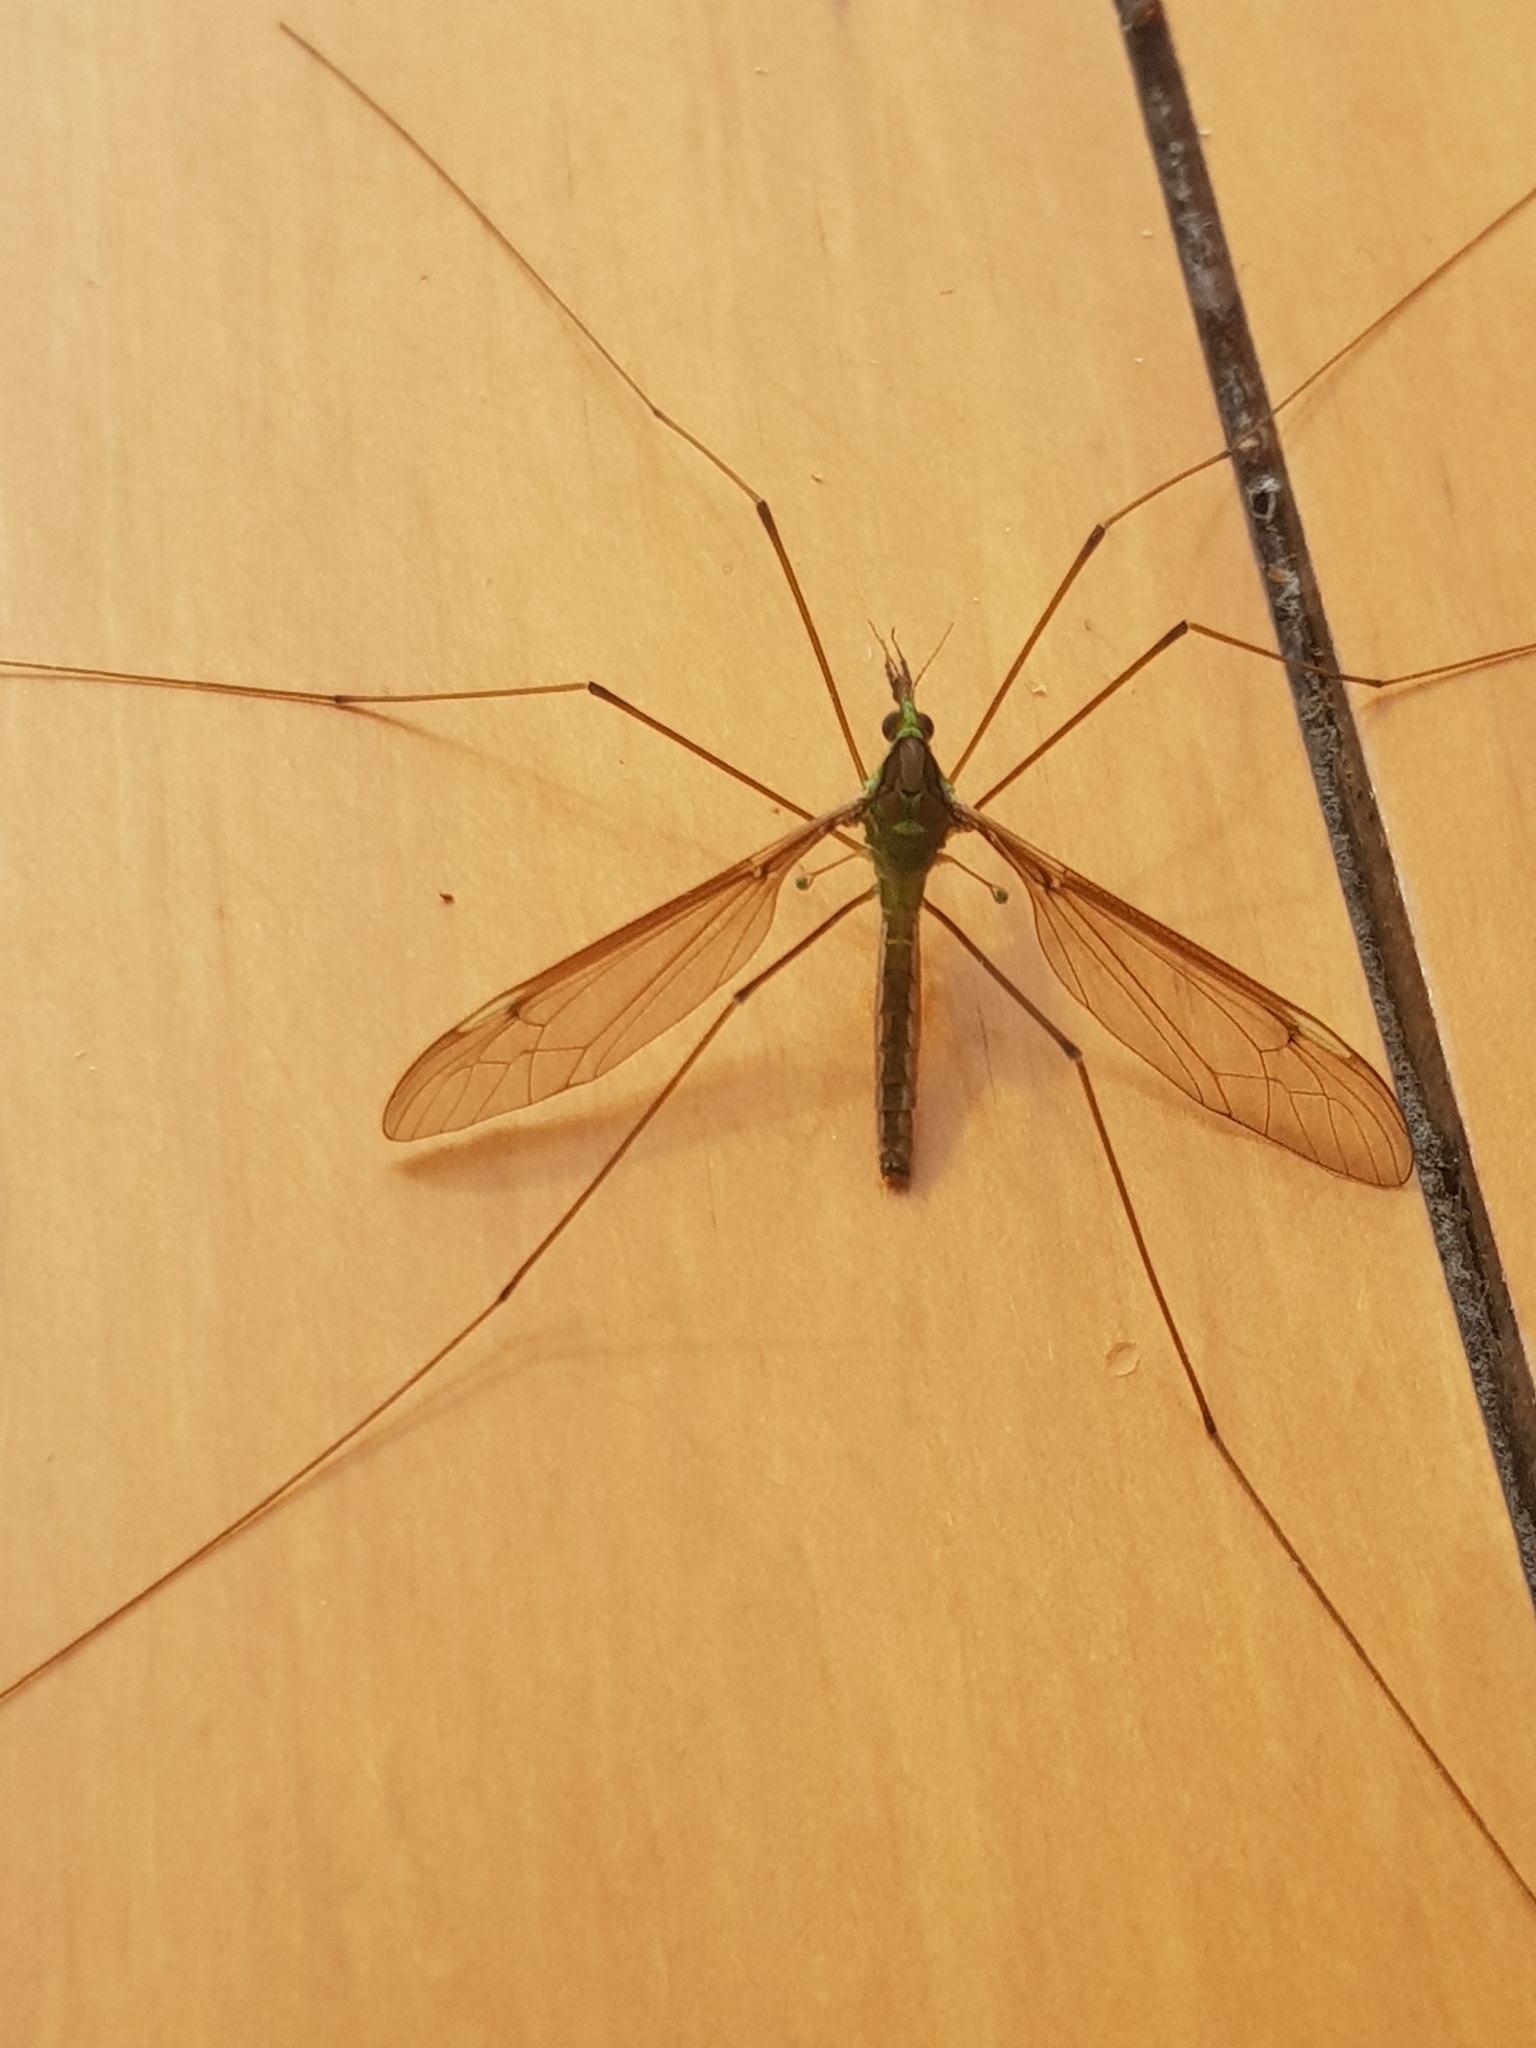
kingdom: Animalia
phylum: Arthropoda
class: Insecta
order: Diptera
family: Tipulidae
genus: Leptotarsus
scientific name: Leptotarsus albistigma
